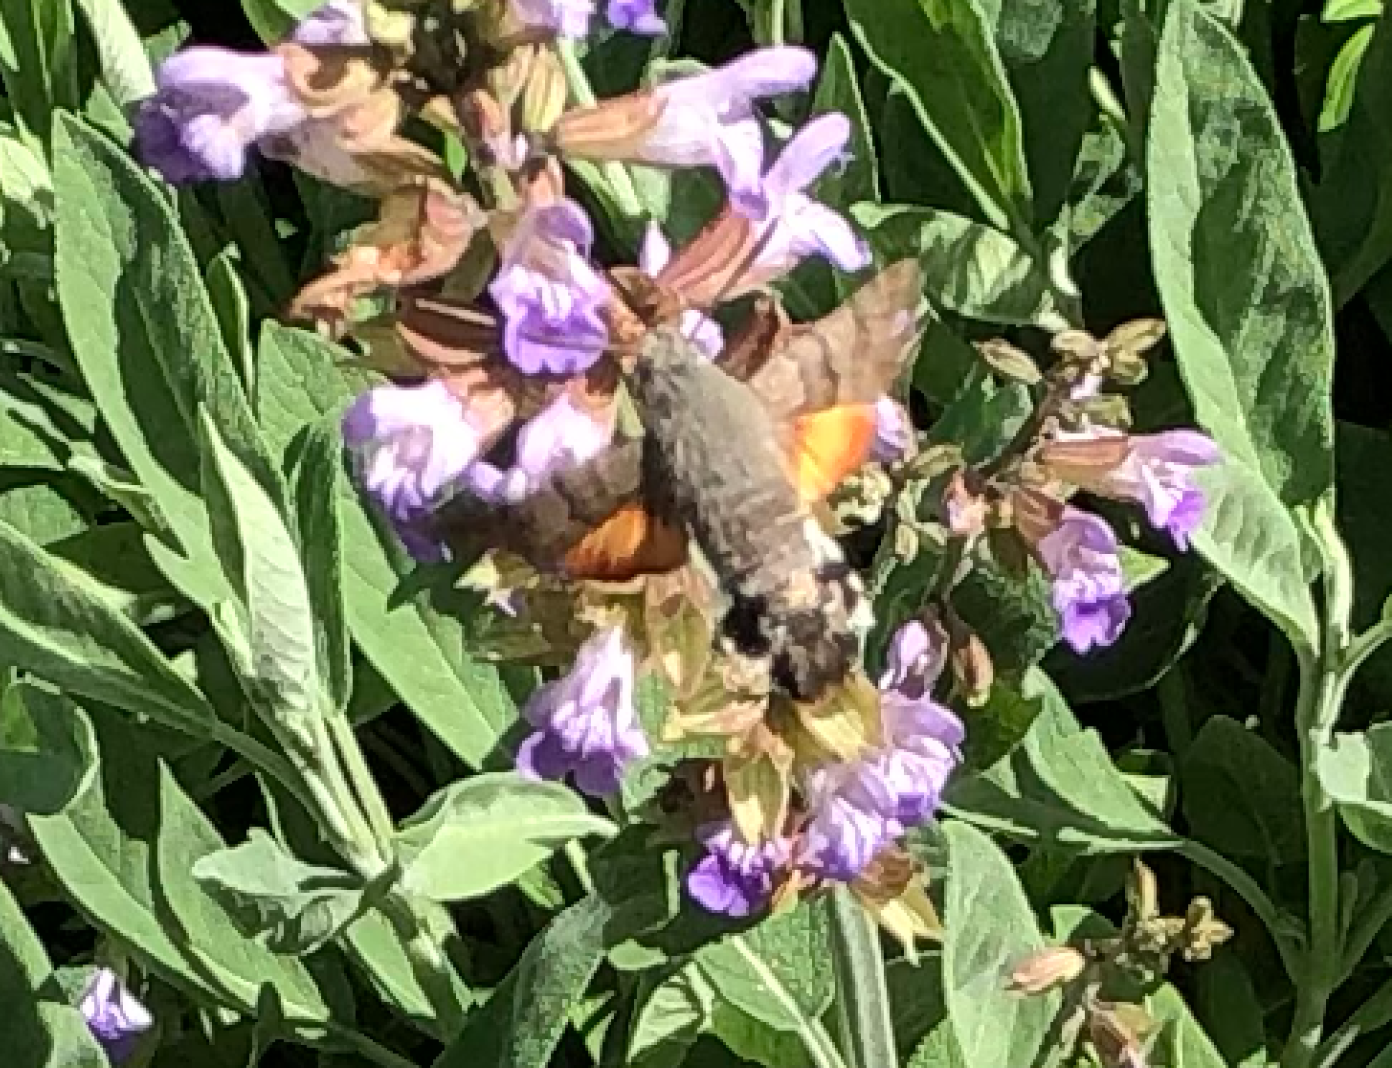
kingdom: Animalia
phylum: Arthropoda
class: Insecta
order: Lepidoptera
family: Sphingidae
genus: Macroglossum
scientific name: Macroglossum stellatarum
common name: Humming-bird hawk-moth
